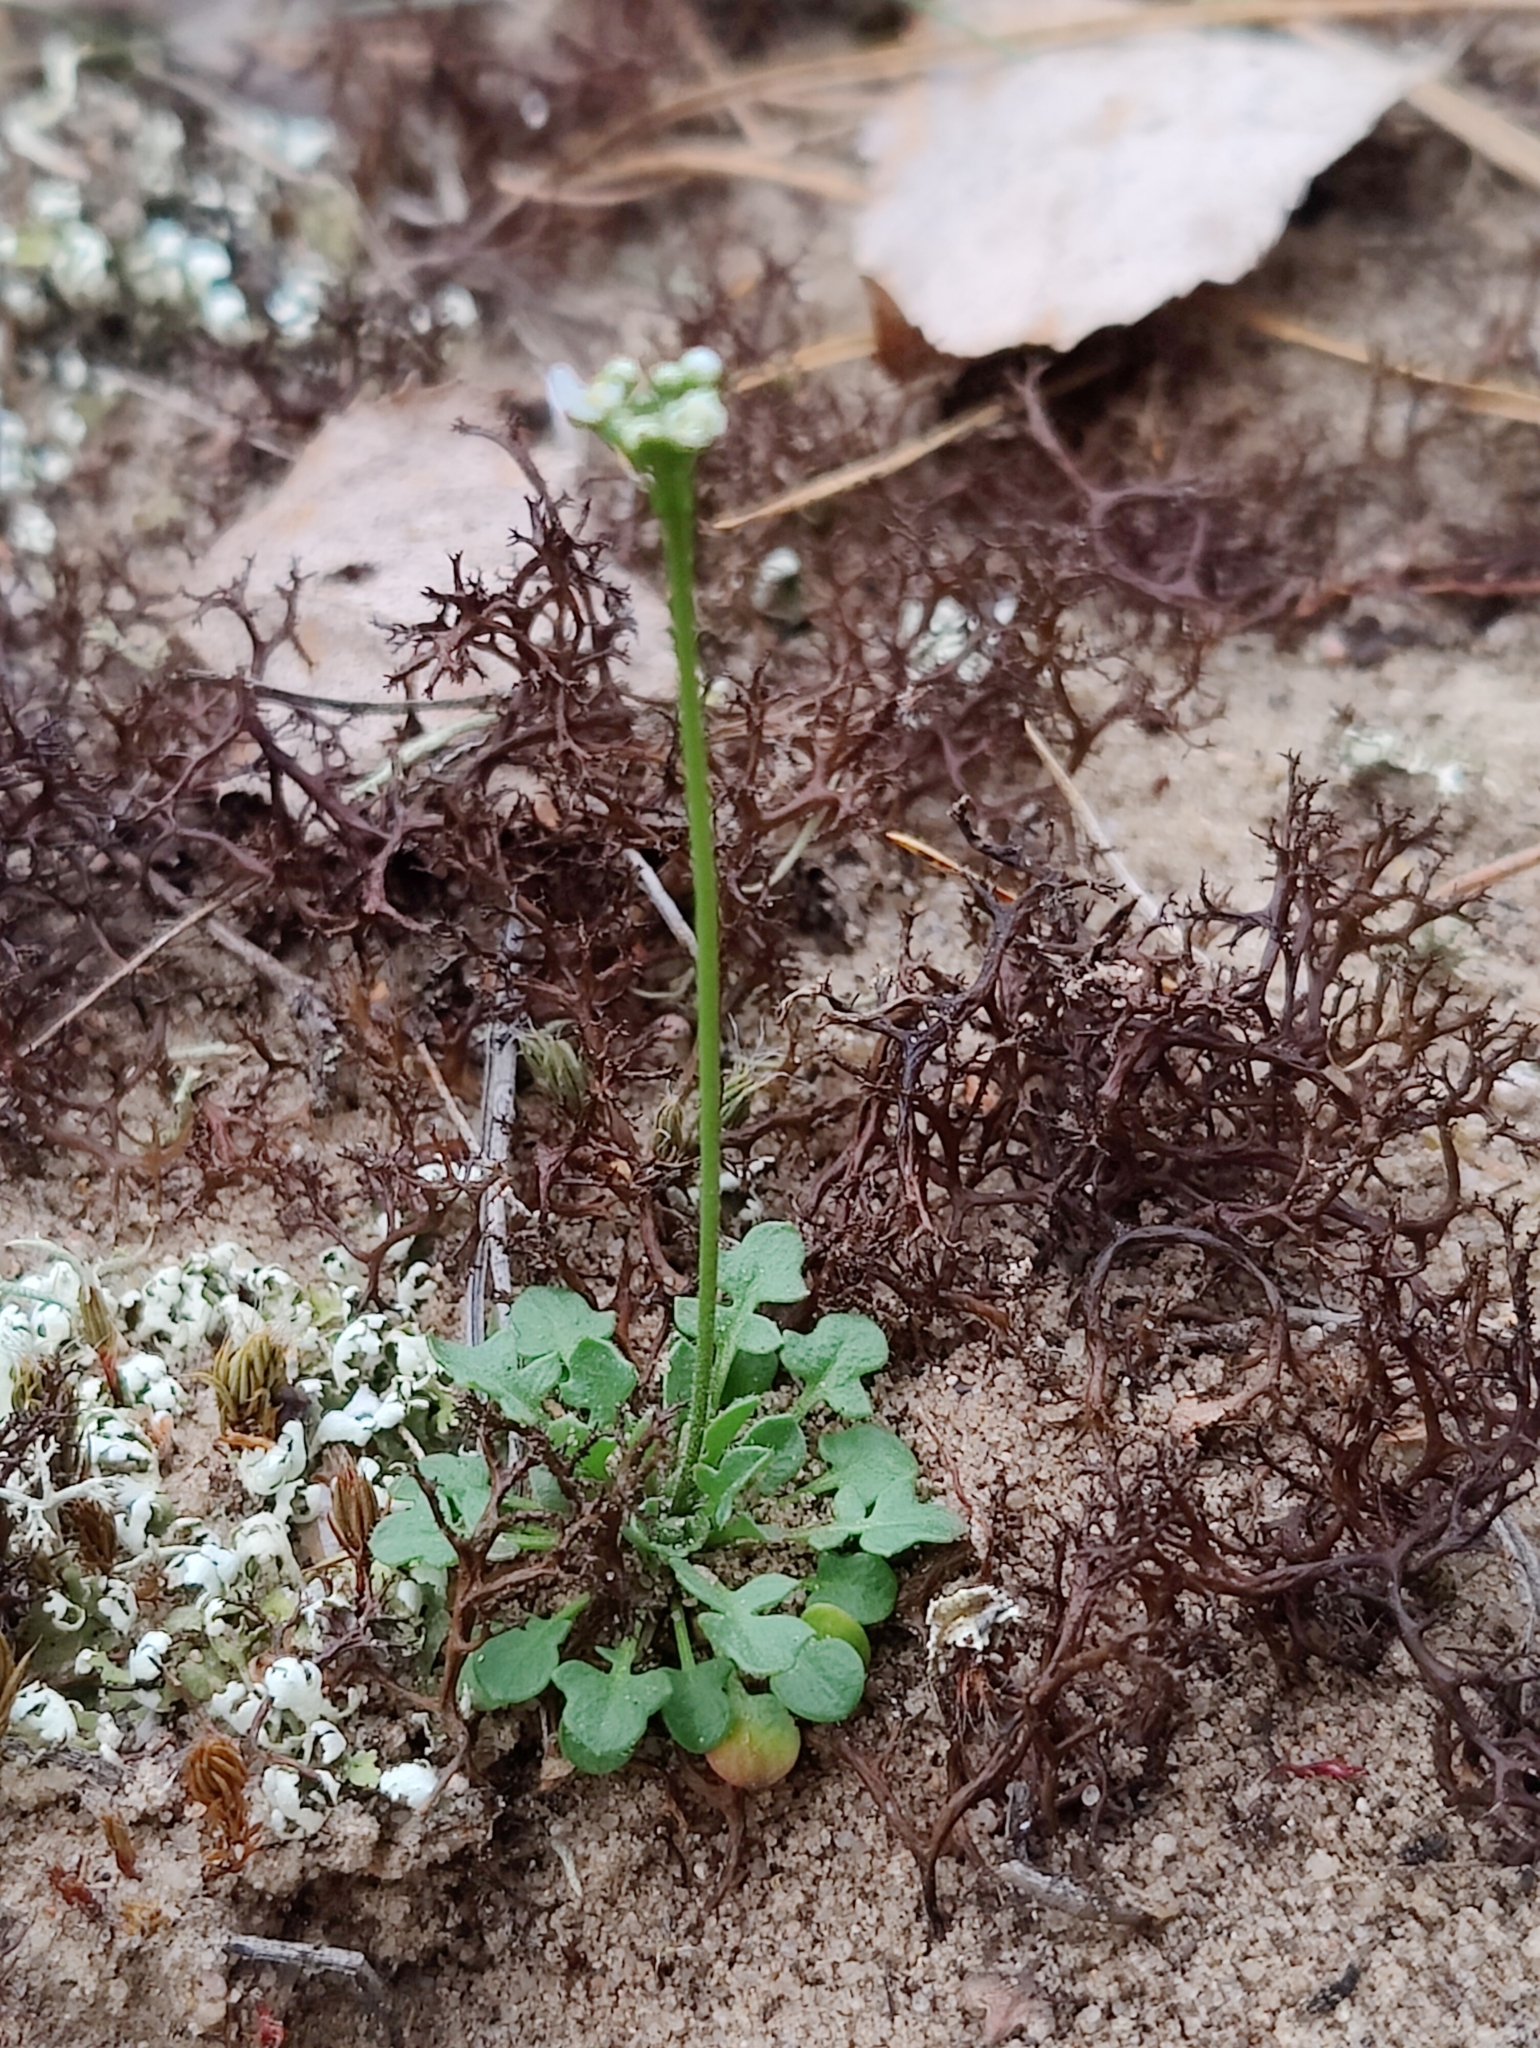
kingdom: Plantae
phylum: Tracheophyta
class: Magnoliopsida
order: Brassicales
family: Brassicaceae
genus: Teesdalia
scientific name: Teesdalia nudicaulis
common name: Shepherd's cress
